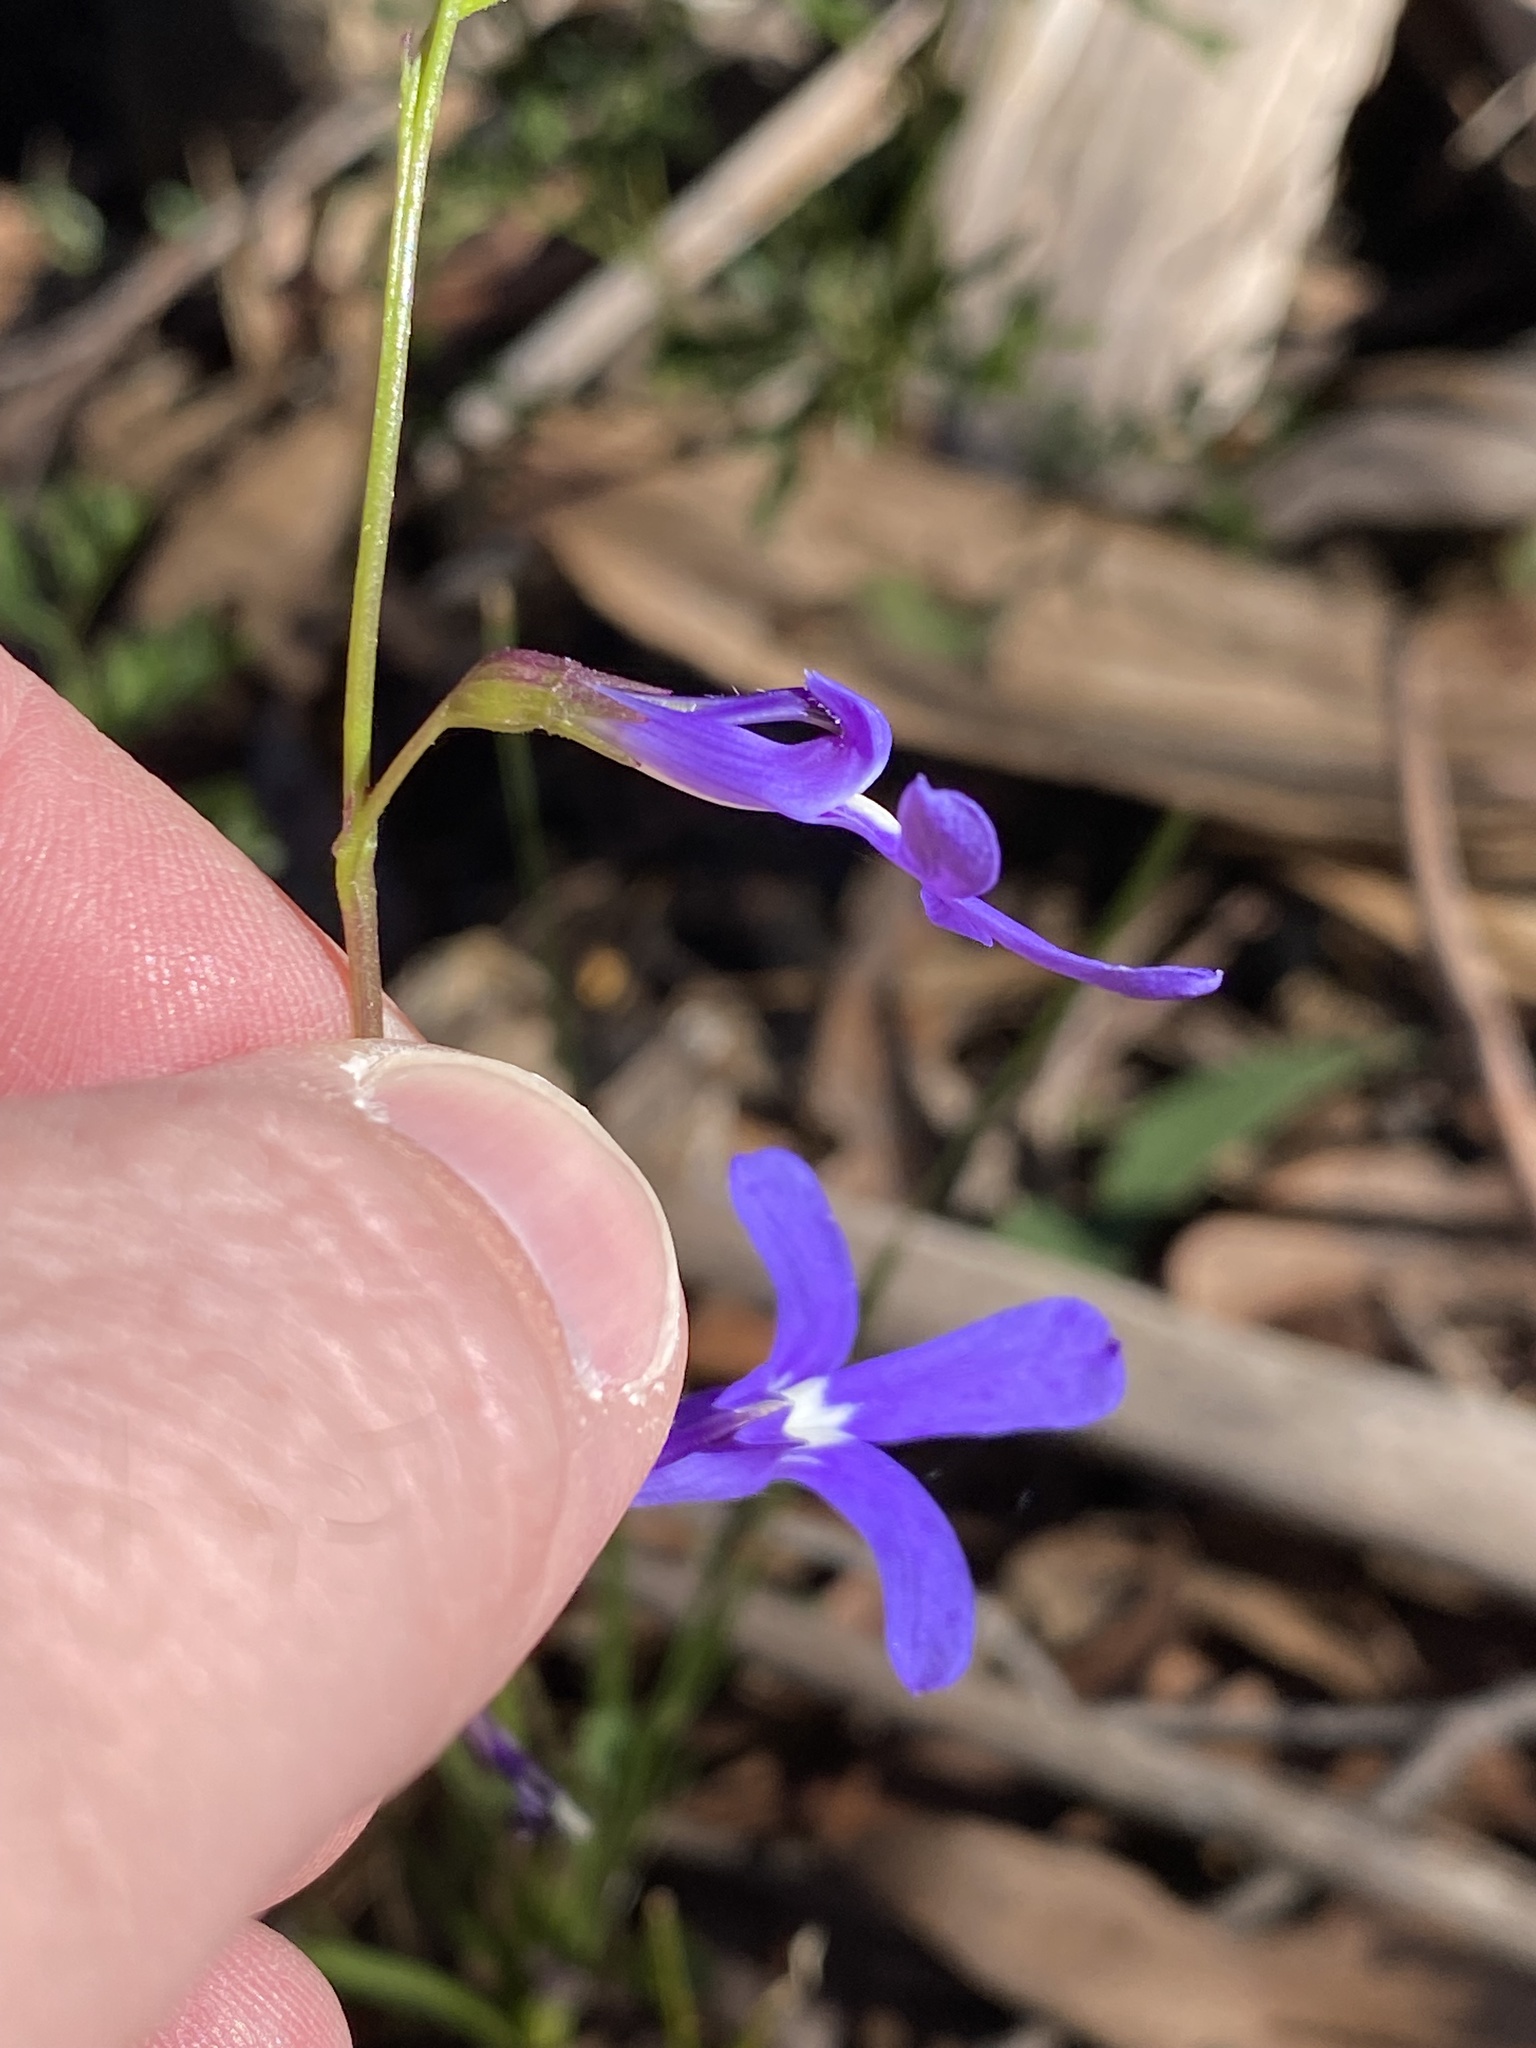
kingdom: Plantae
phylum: Tracheophyta
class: Magnoliopsida
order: Asterales
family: Campanulaceae
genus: Lobelia
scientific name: Lobelia dentata
